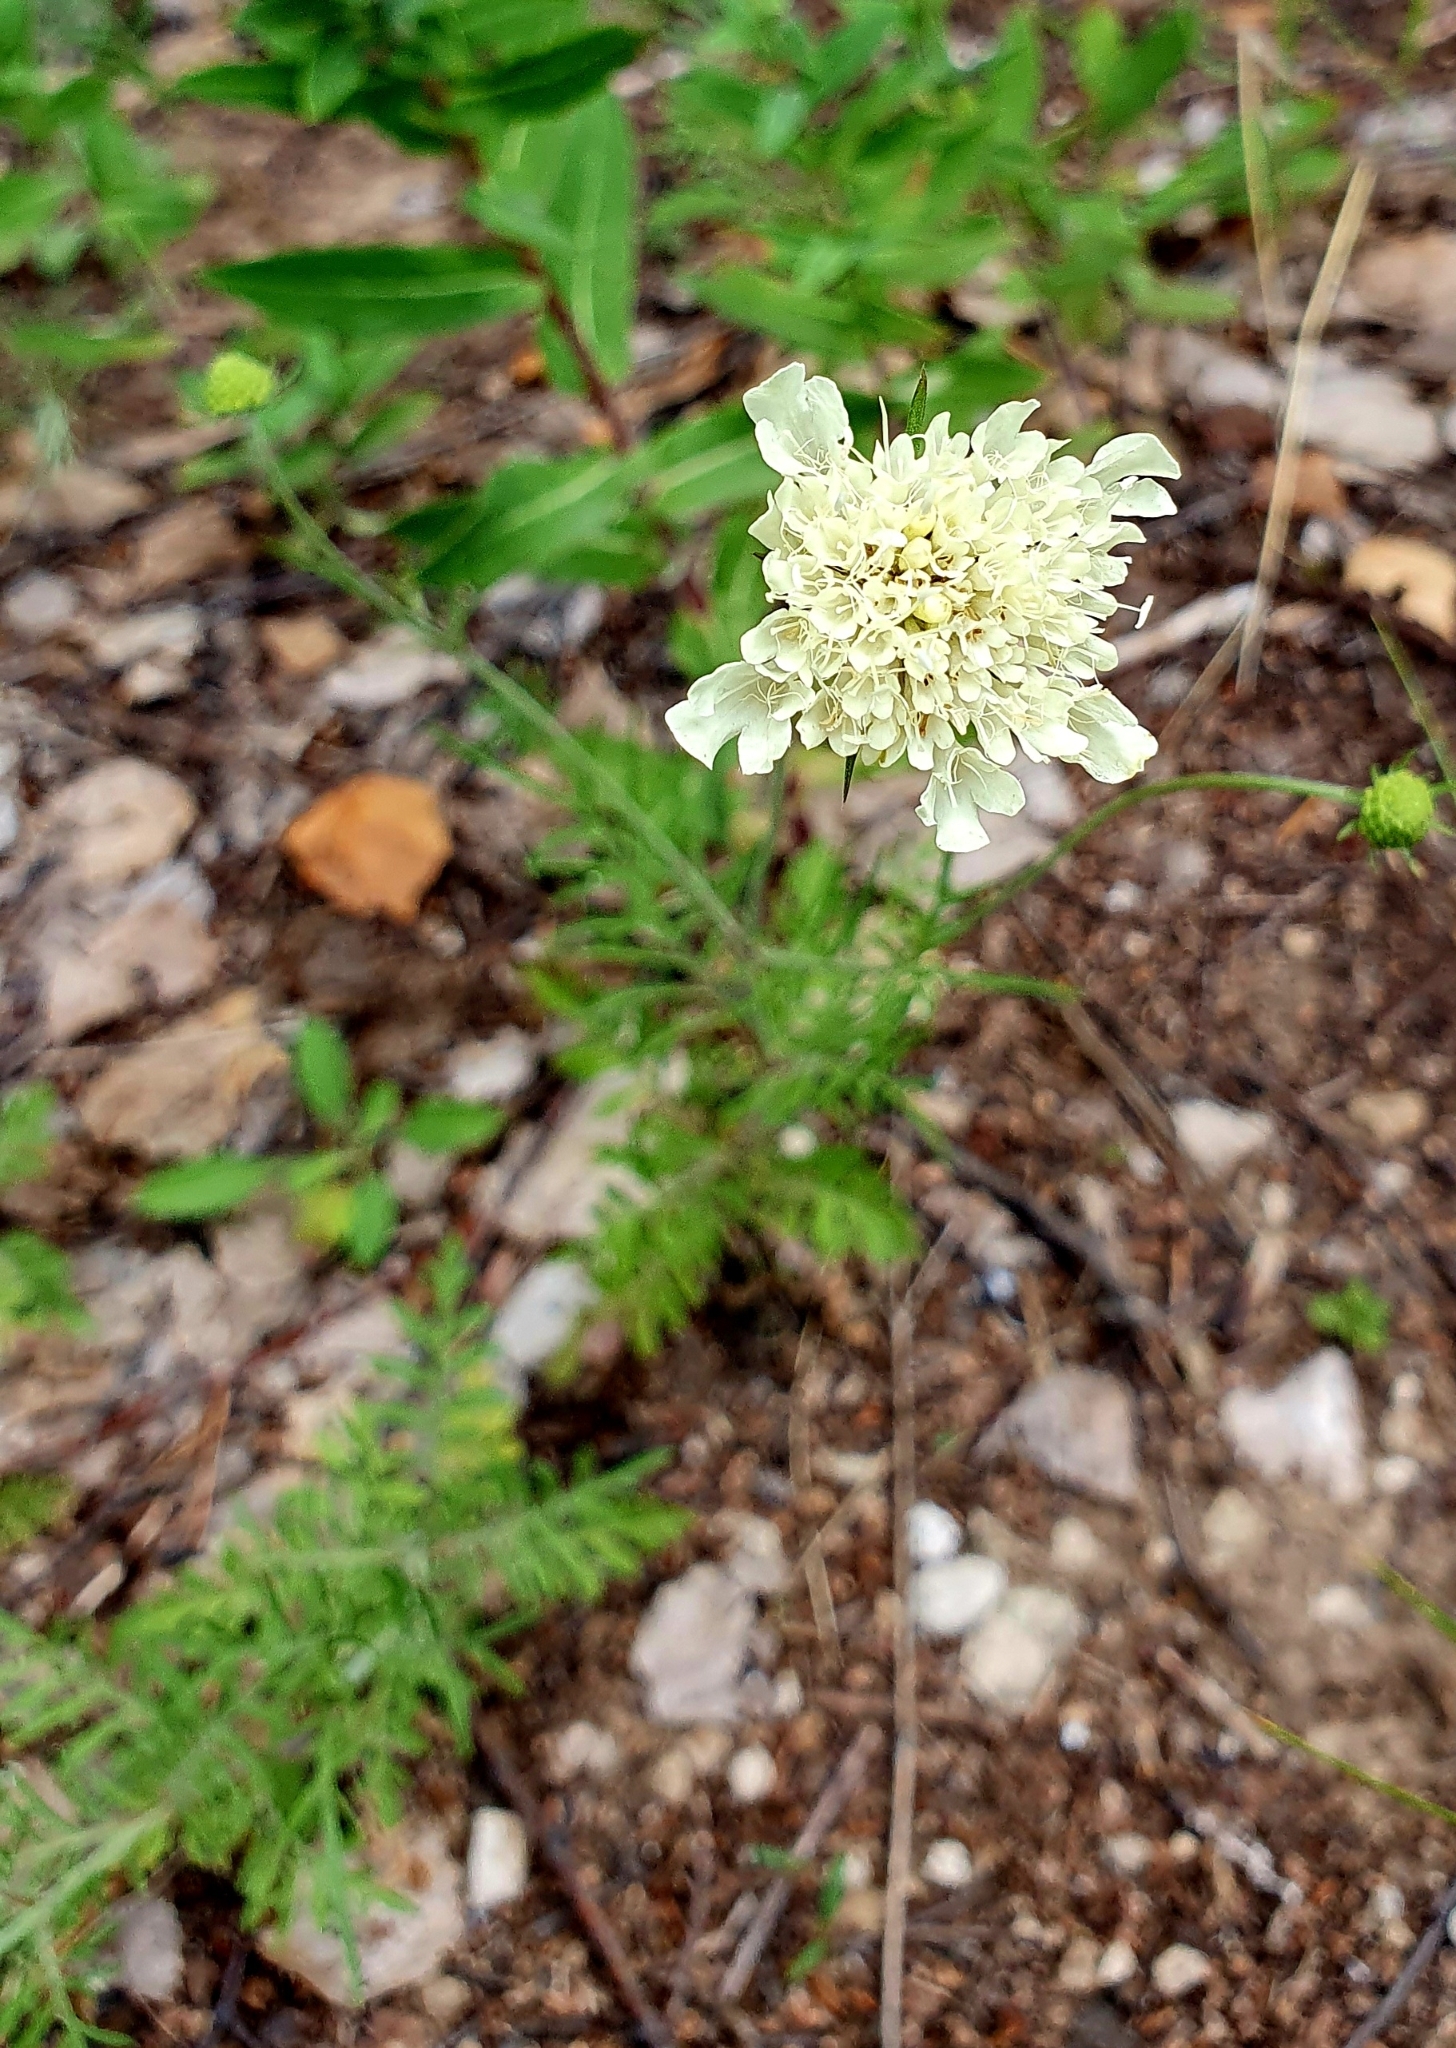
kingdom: Plantae
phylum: Tracheophyta
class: Magnoliopsida
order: Dipsacales
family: Caprifoliaceae
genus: Scabiosa
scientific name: Scabiosa ochroleuca
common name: Cream pincushions
